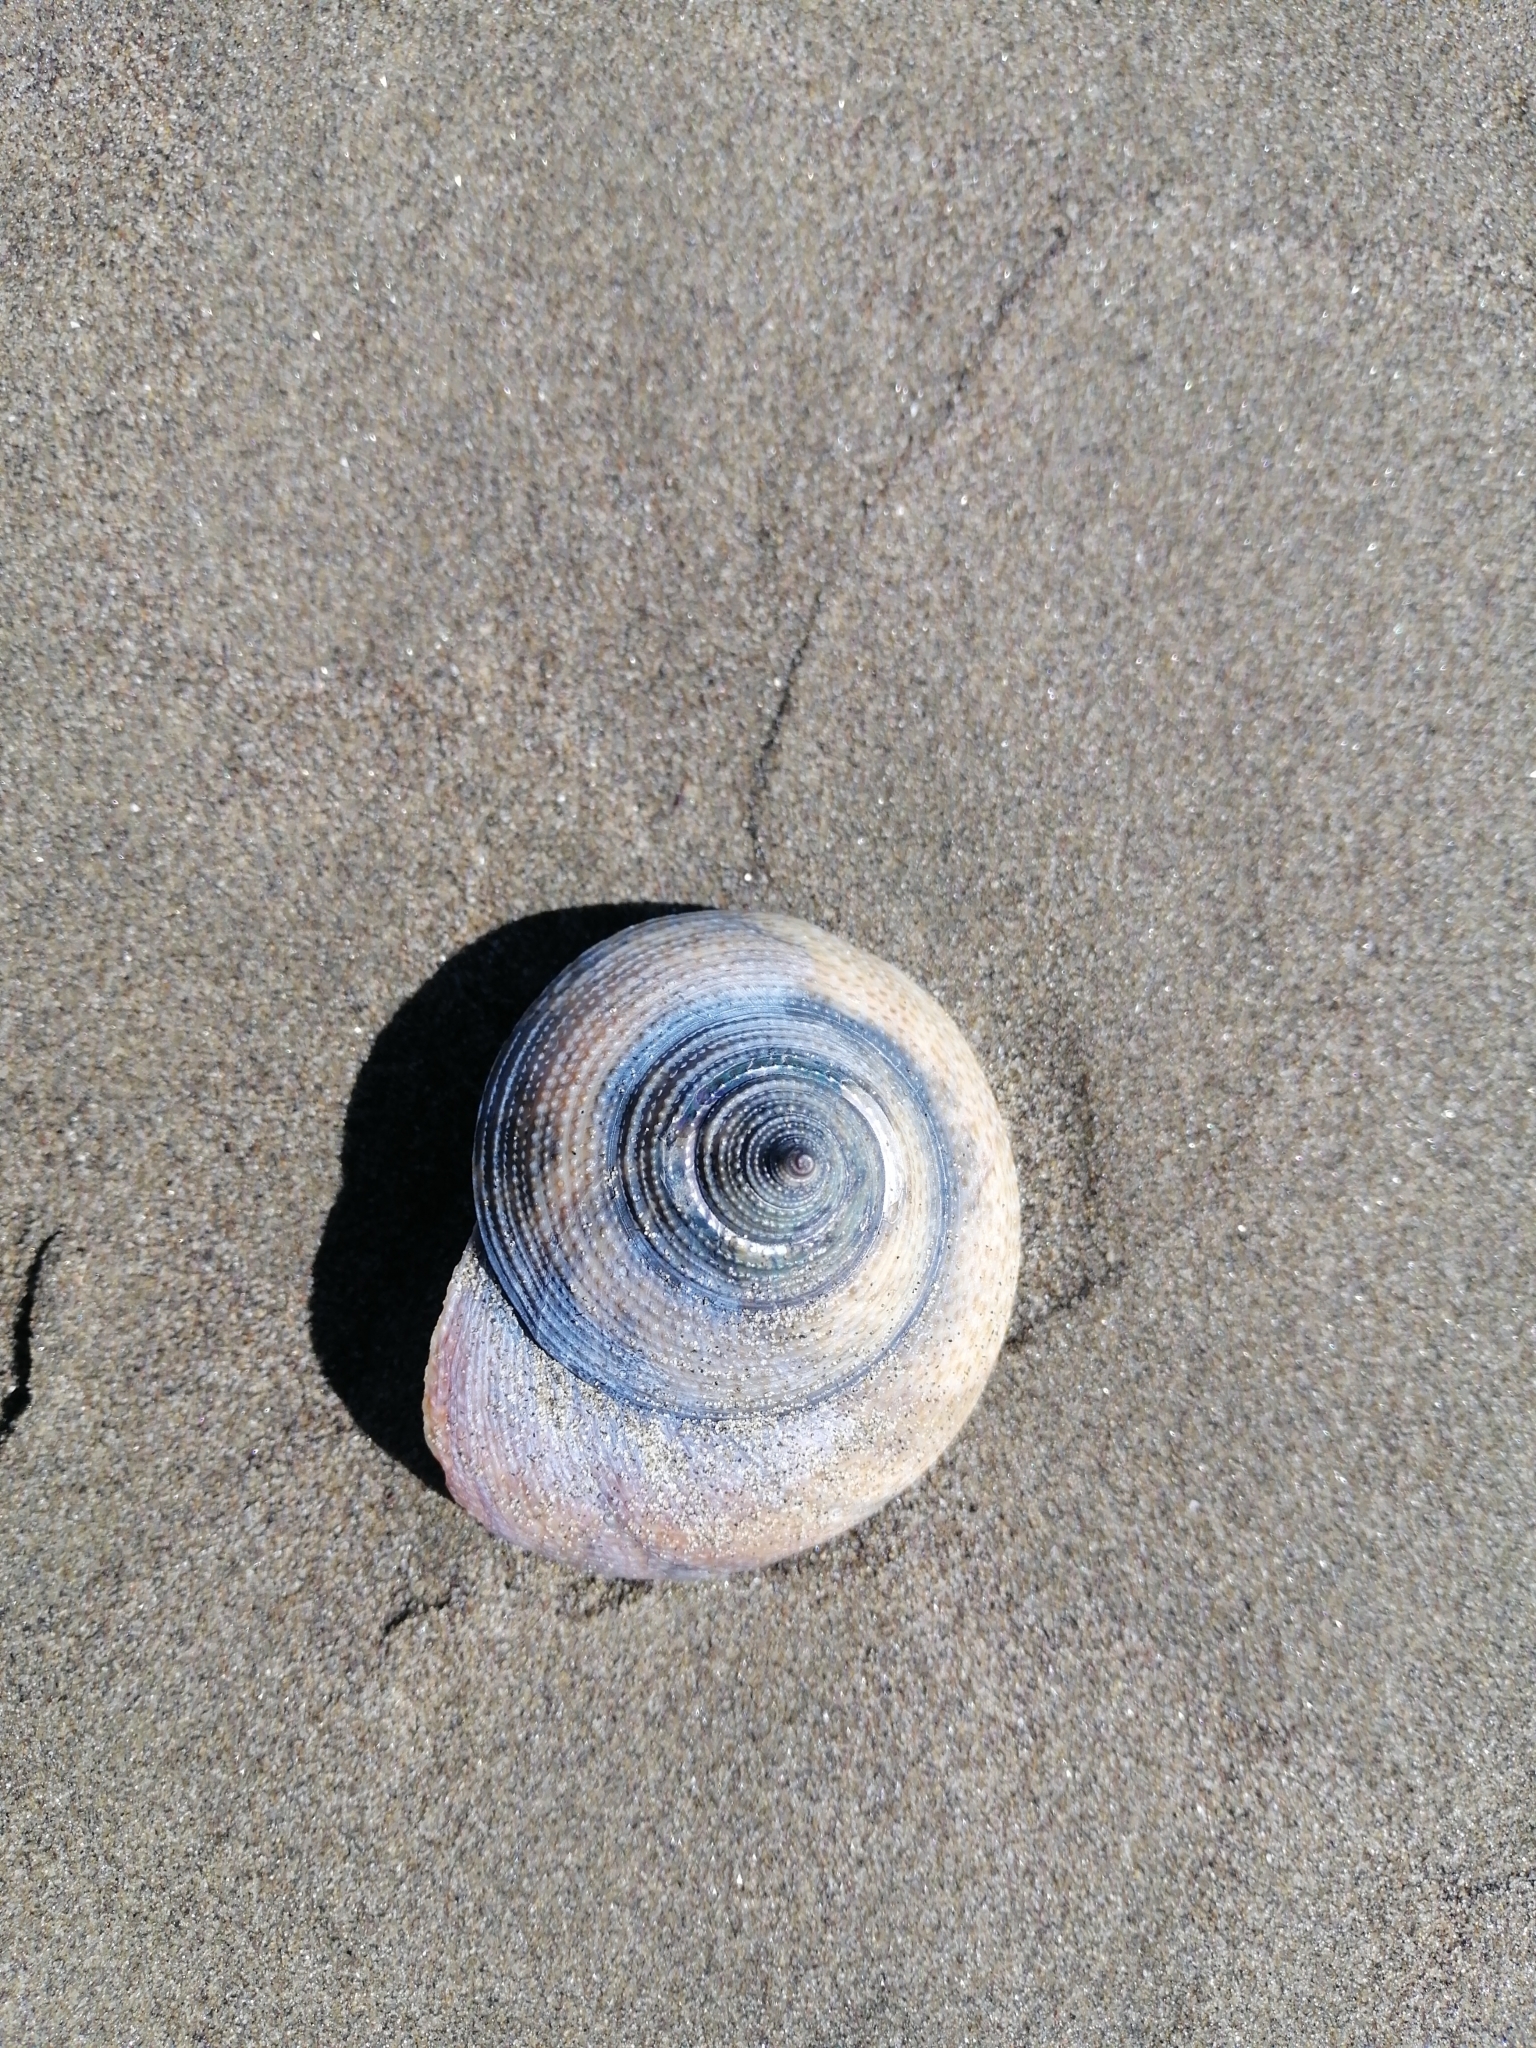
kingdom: Animalia
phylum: Mollusca
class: Gastropoda
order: Trochida
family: Calliostomatidae
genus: Maurea
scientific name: Maurea selecta
